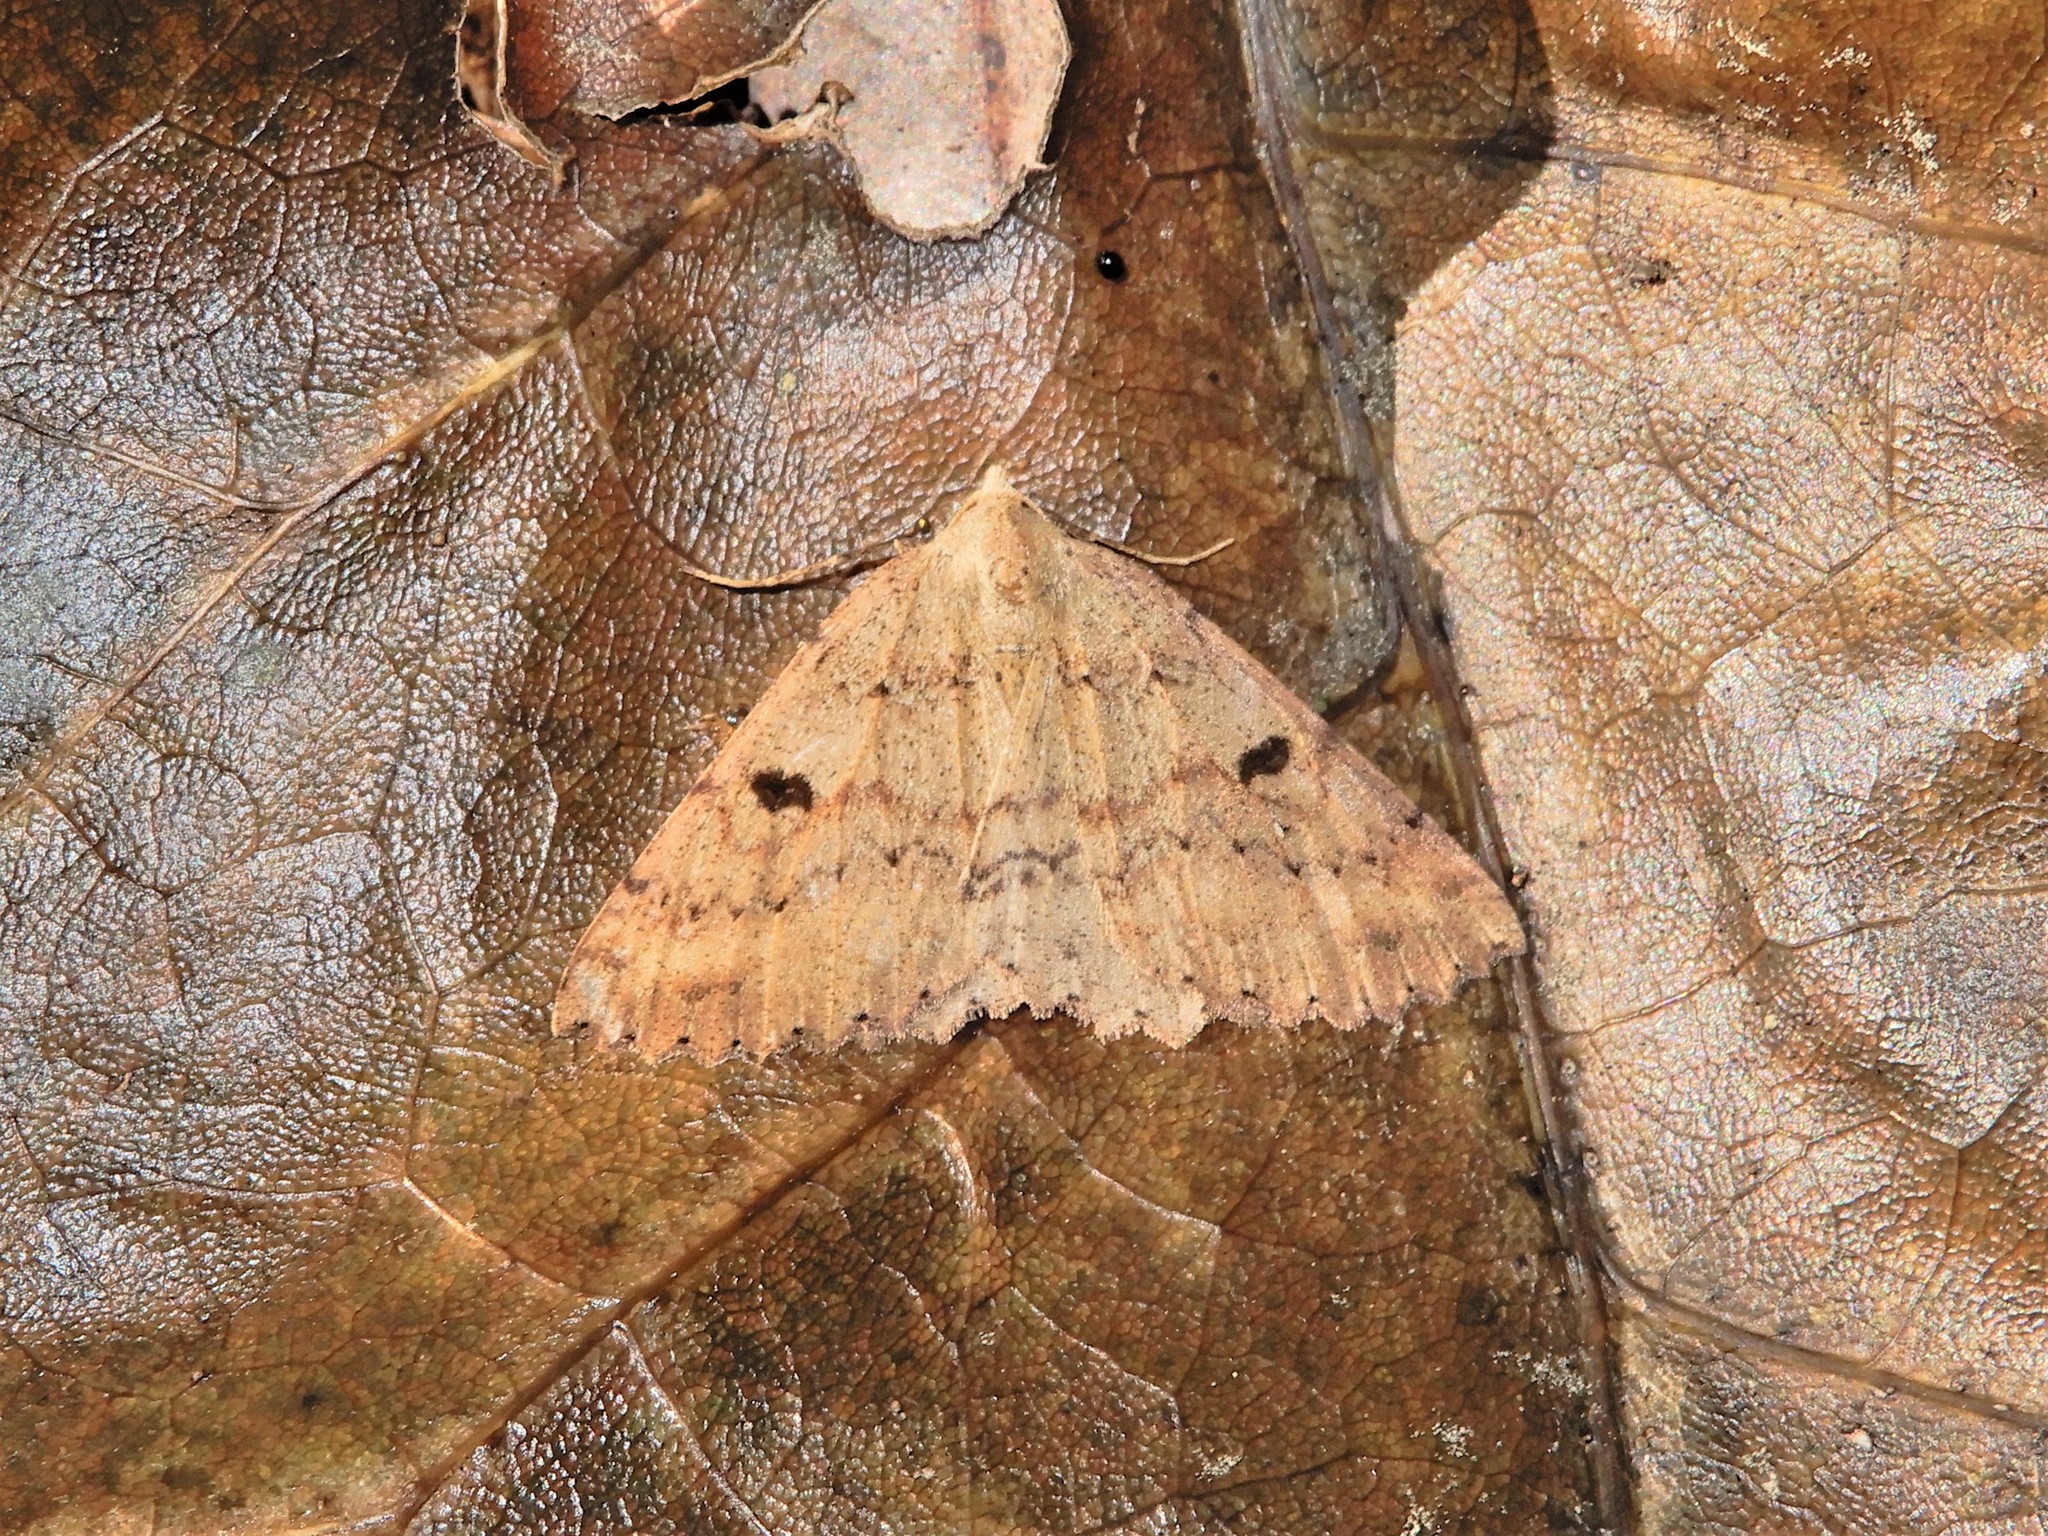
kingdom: Animalia
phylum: Arthropoda
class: Insecta
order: Lepidoptera
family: Geometridae
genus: Cleora
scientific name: Cleora scriptaria
